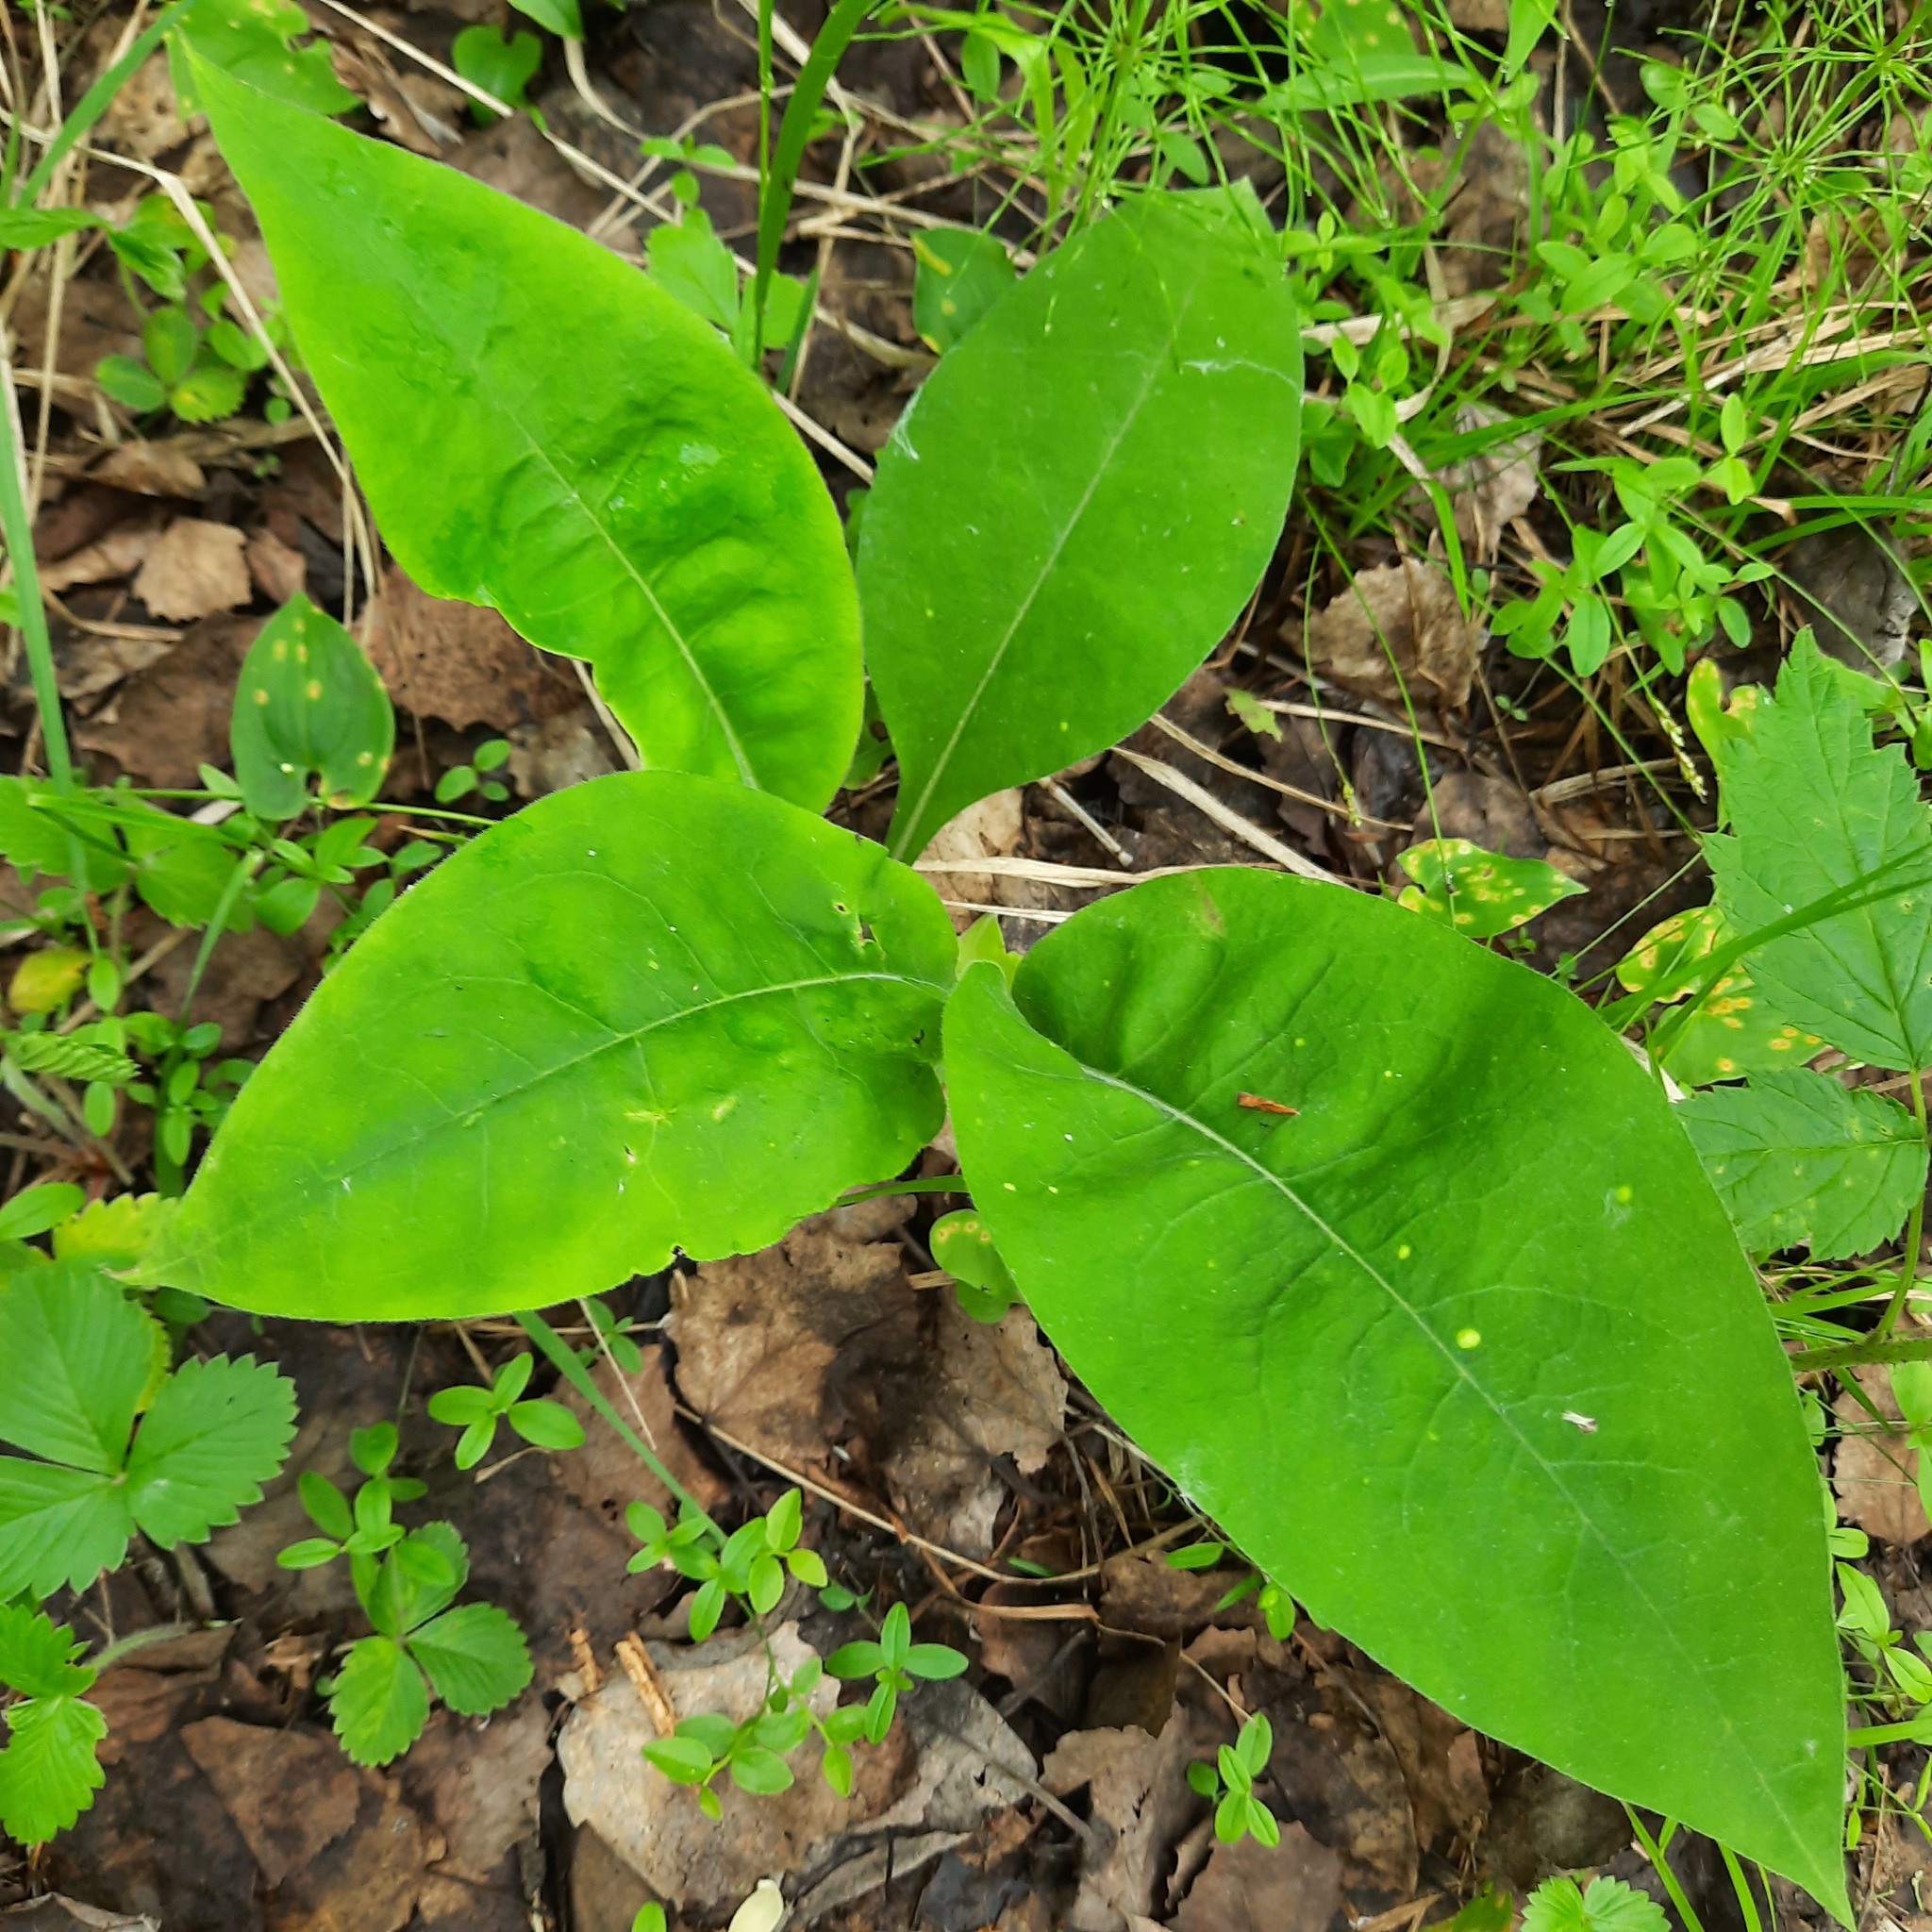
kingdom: Plantae
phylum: Tracheophyta
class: Magnoliopsida
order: Boraginales
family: Boraginaceae
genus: Pulmonaria
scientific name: Pulmonaria mollis
